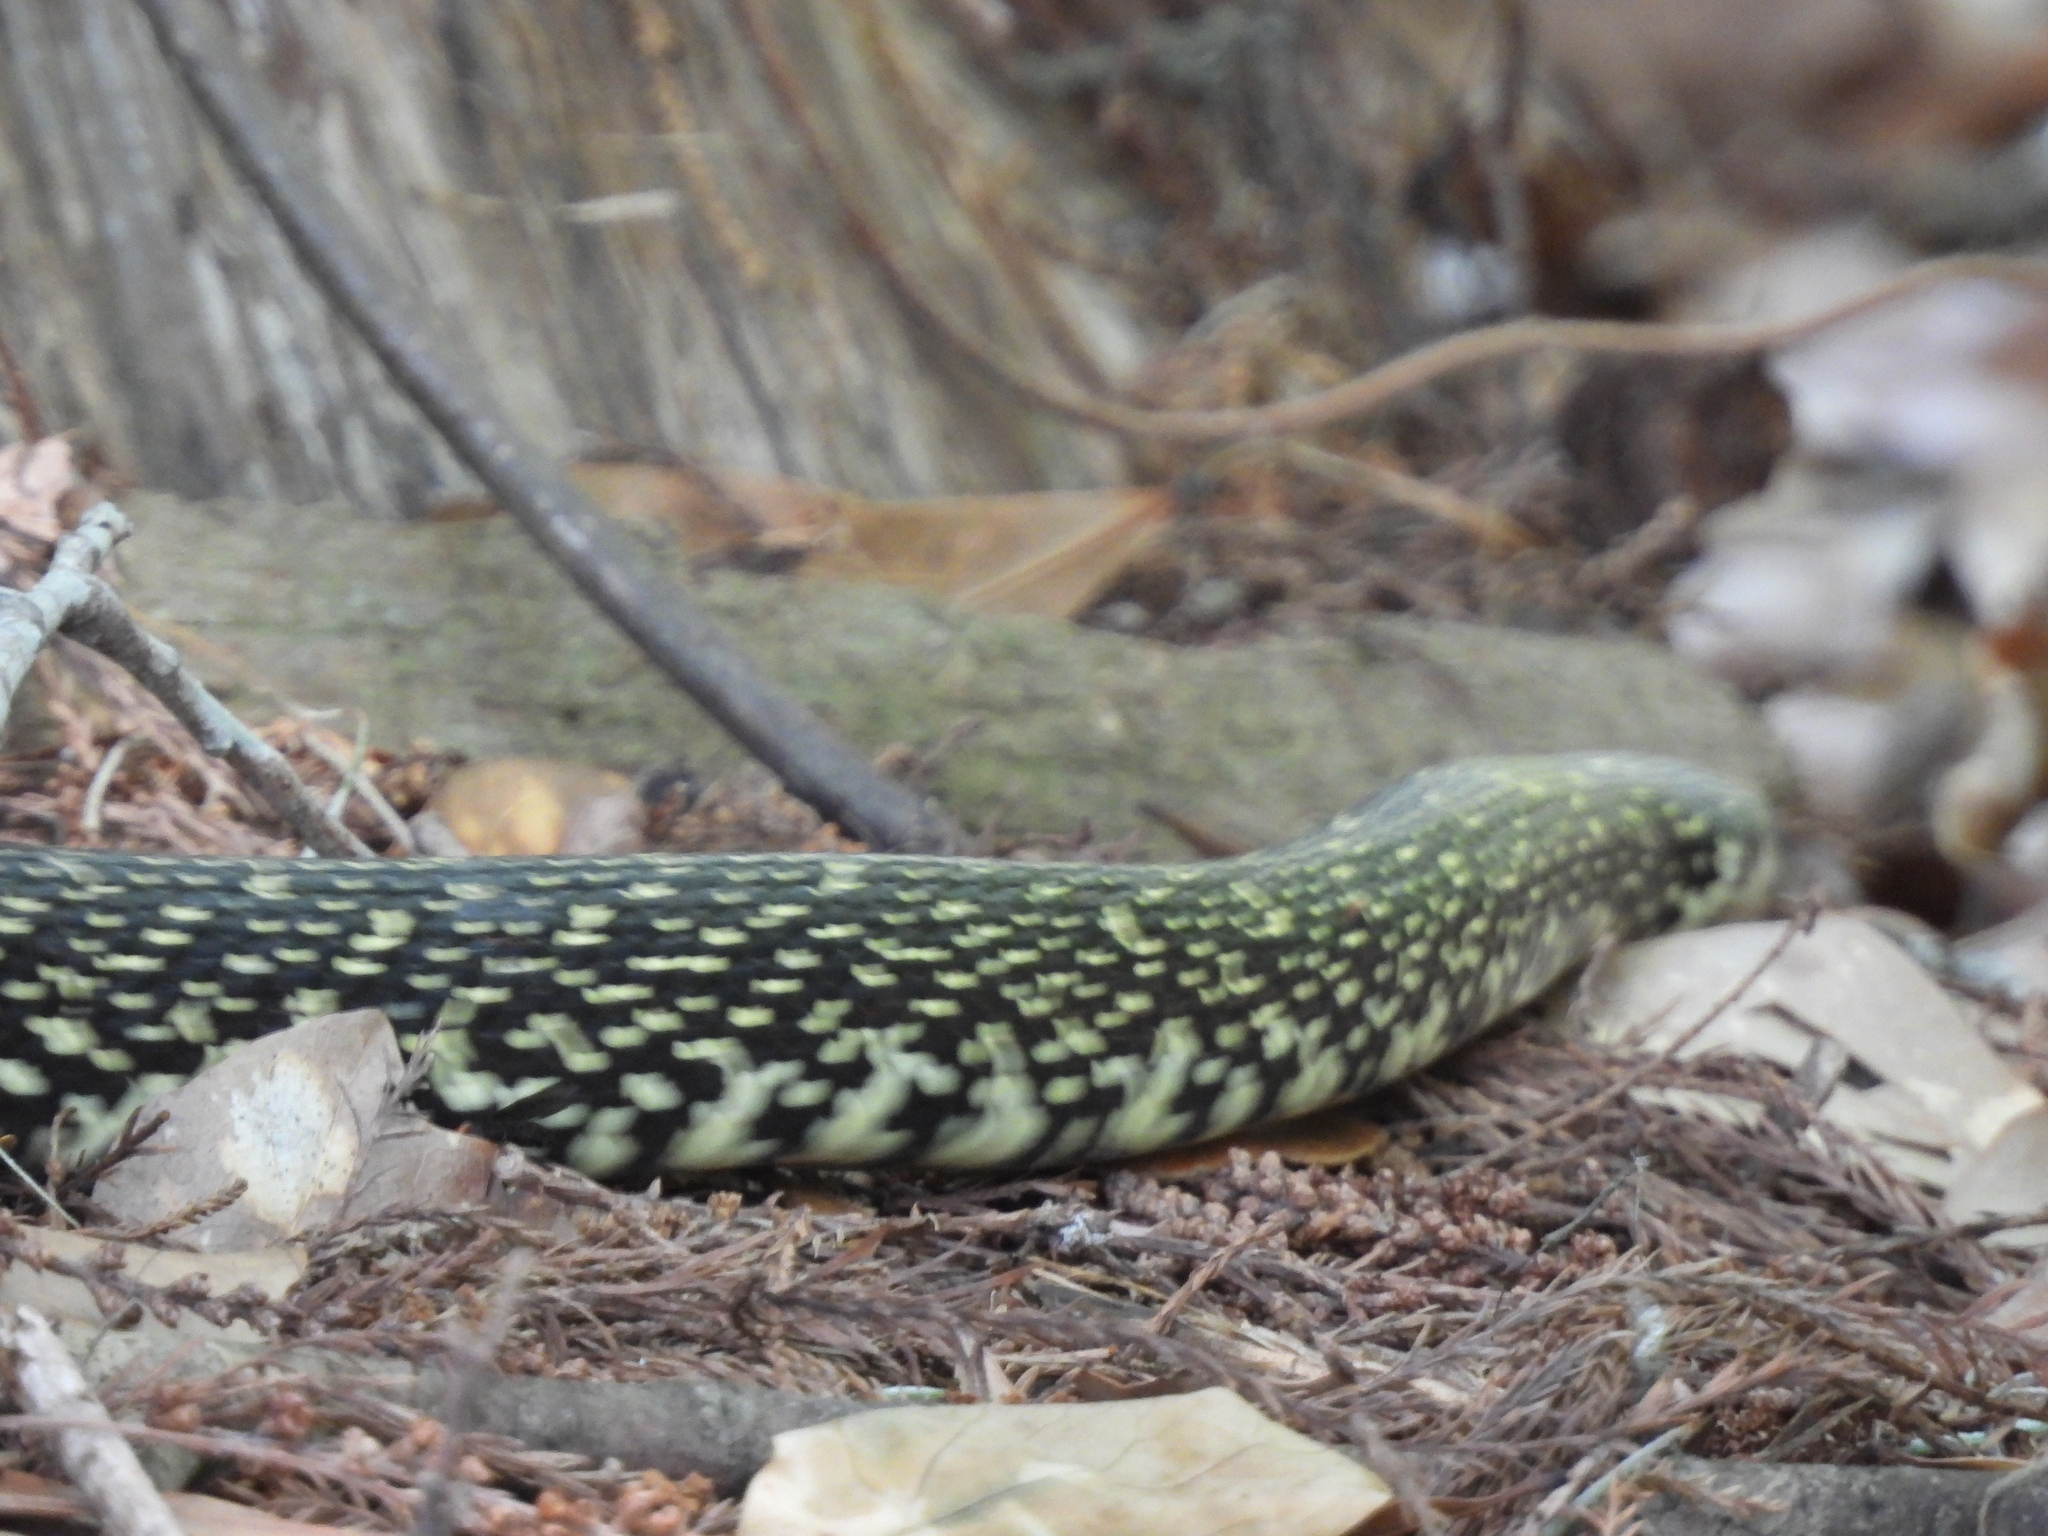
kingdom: Animalia
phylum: Chordata
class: Squamata
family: Colubridae
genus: Lampropeltis
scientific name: Lampropeltis holbrooki
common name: Speckled kingsnake
